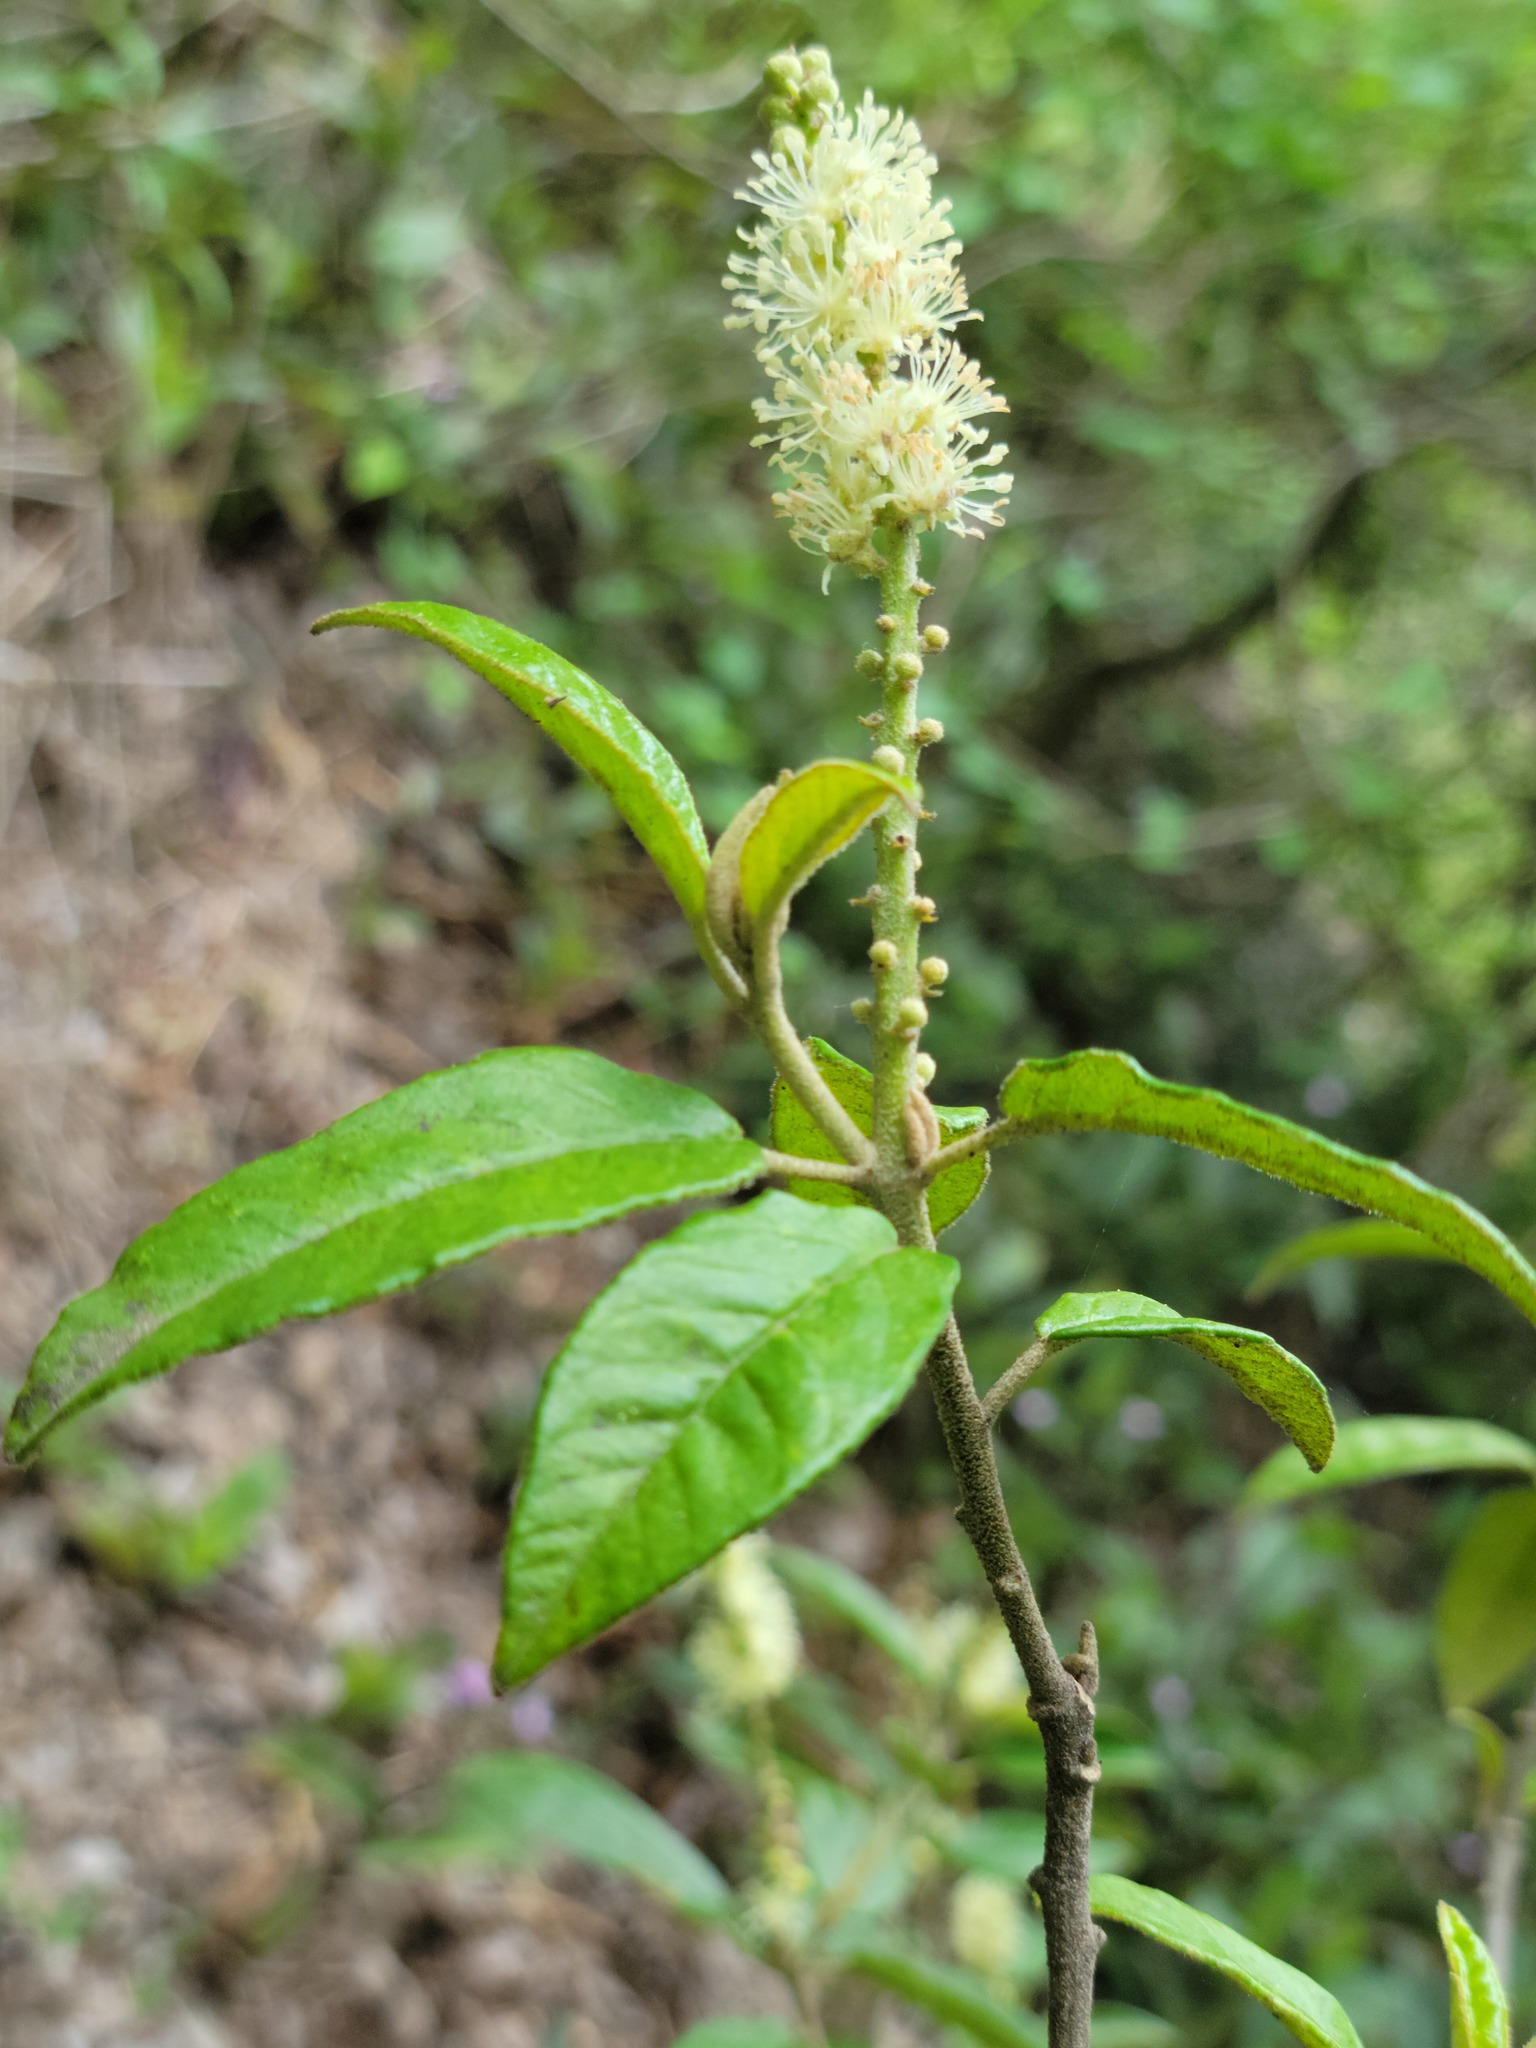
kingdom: Plantae
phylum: Tracheophyta
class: Magnoliopsida
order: Malpighiales
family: Euphorbiaceae
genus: Croton
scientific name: Croton cortesianus
